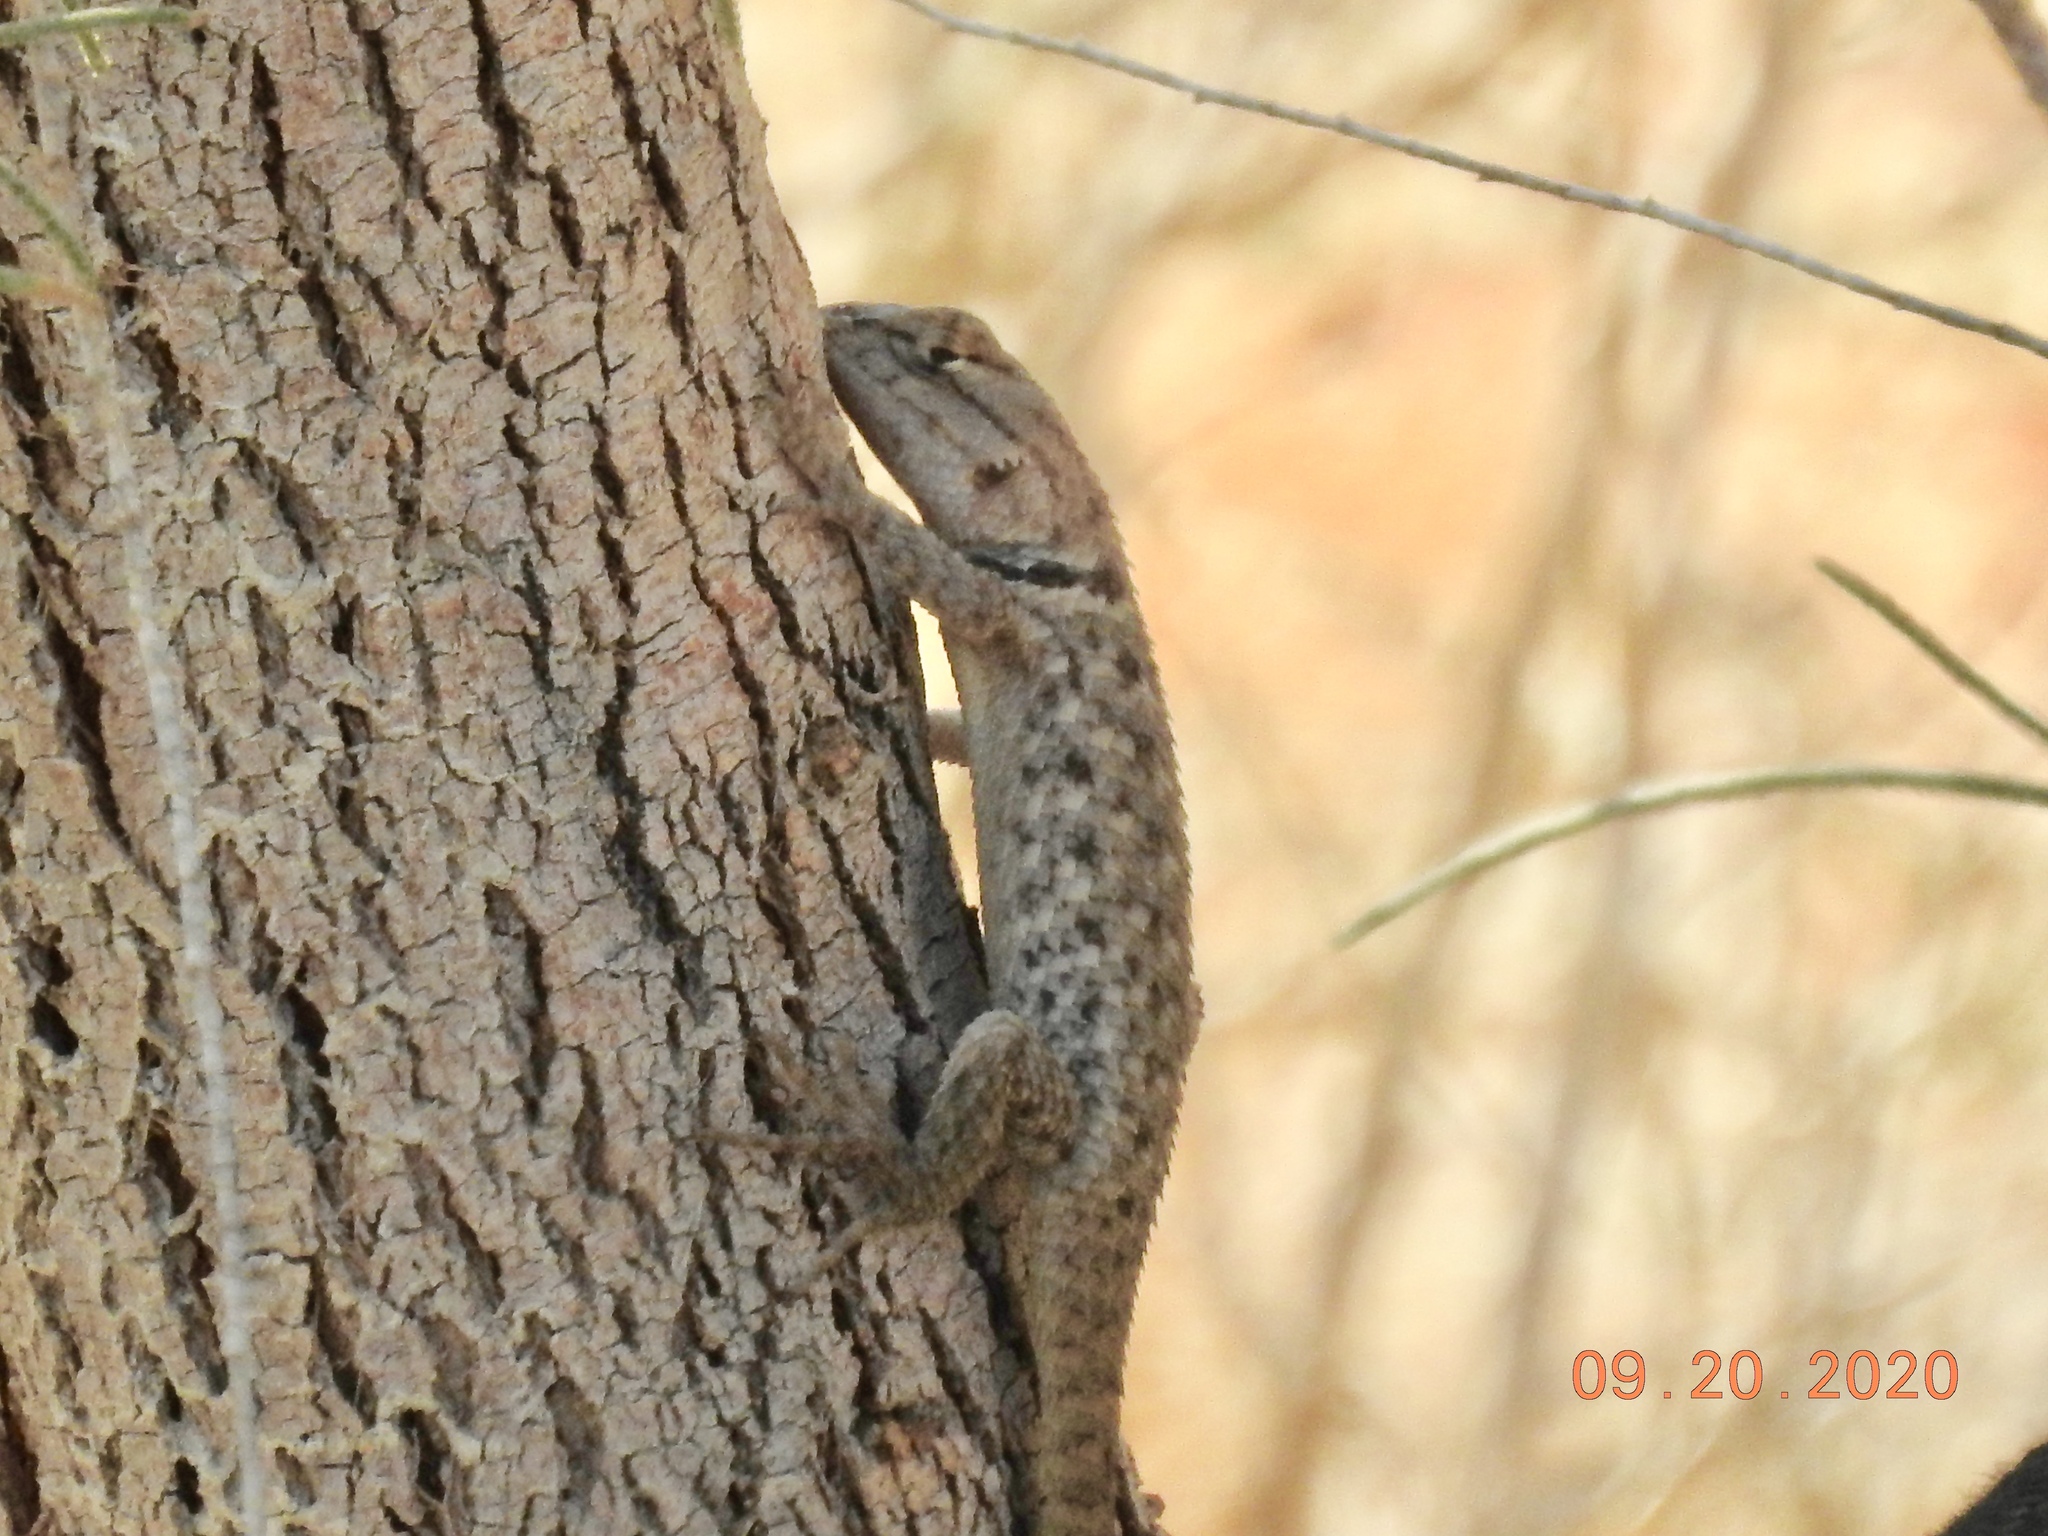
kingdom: Animalia
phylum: Chordata
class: Squamata
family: Phrynosomatidae
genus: Sceloporus
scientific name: Sceloporus magister
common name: Desert spiny lizard
